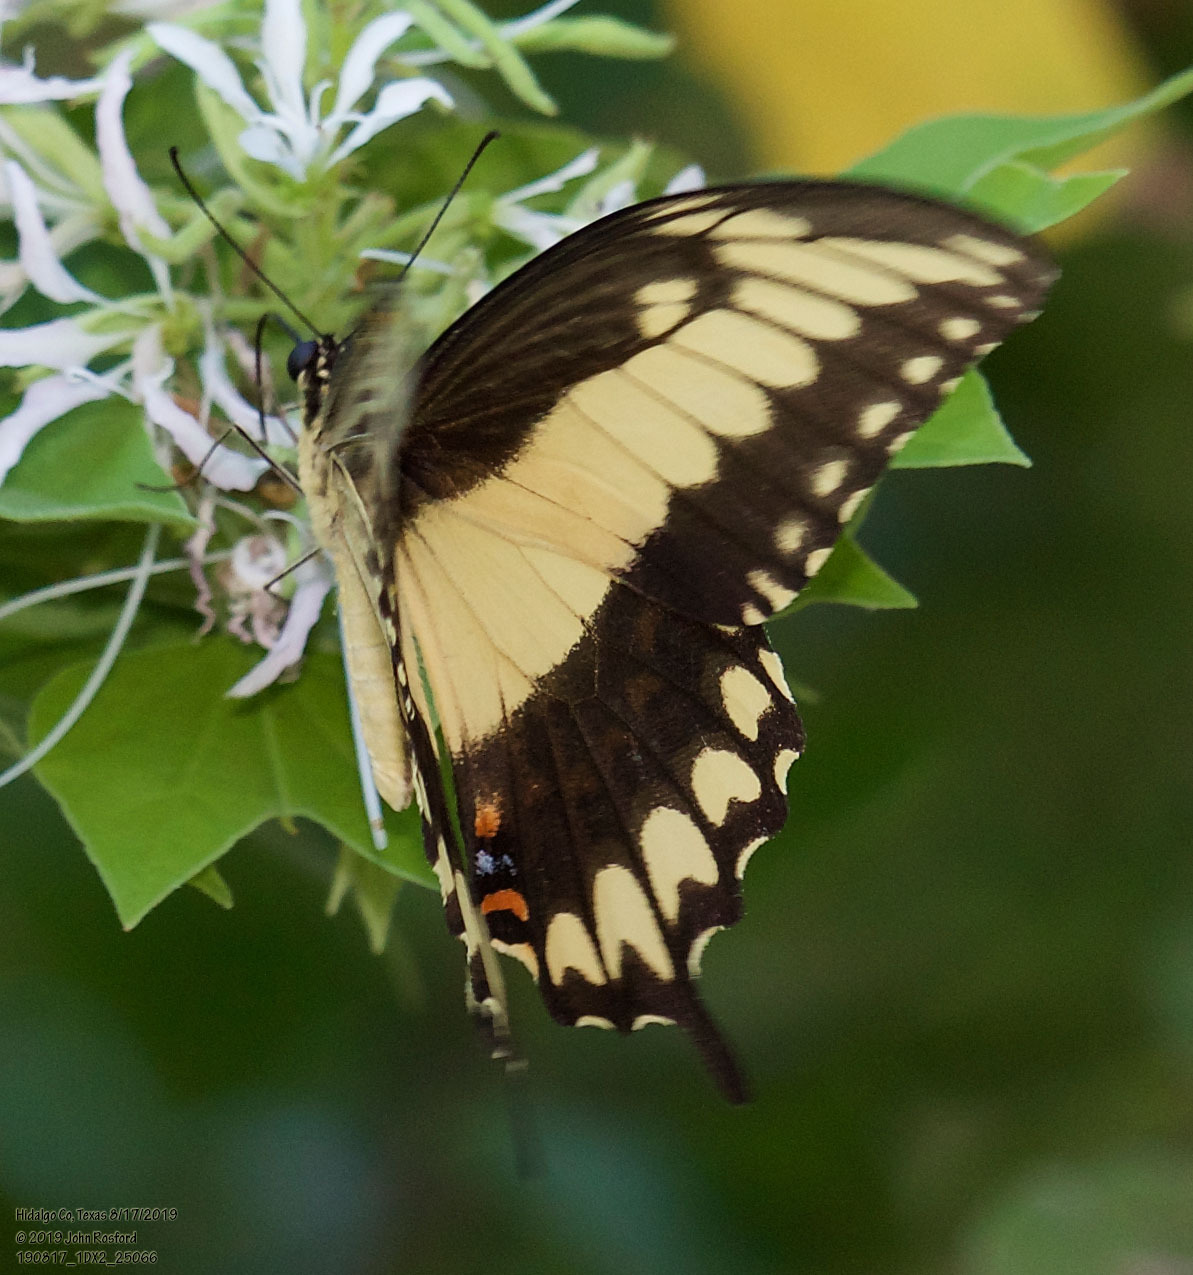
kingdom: Animalia
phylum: Arthropoda
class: Insecta
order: Lepidoptera
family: Papilionidae
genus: Heraclides
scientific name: Heraclides pallas
